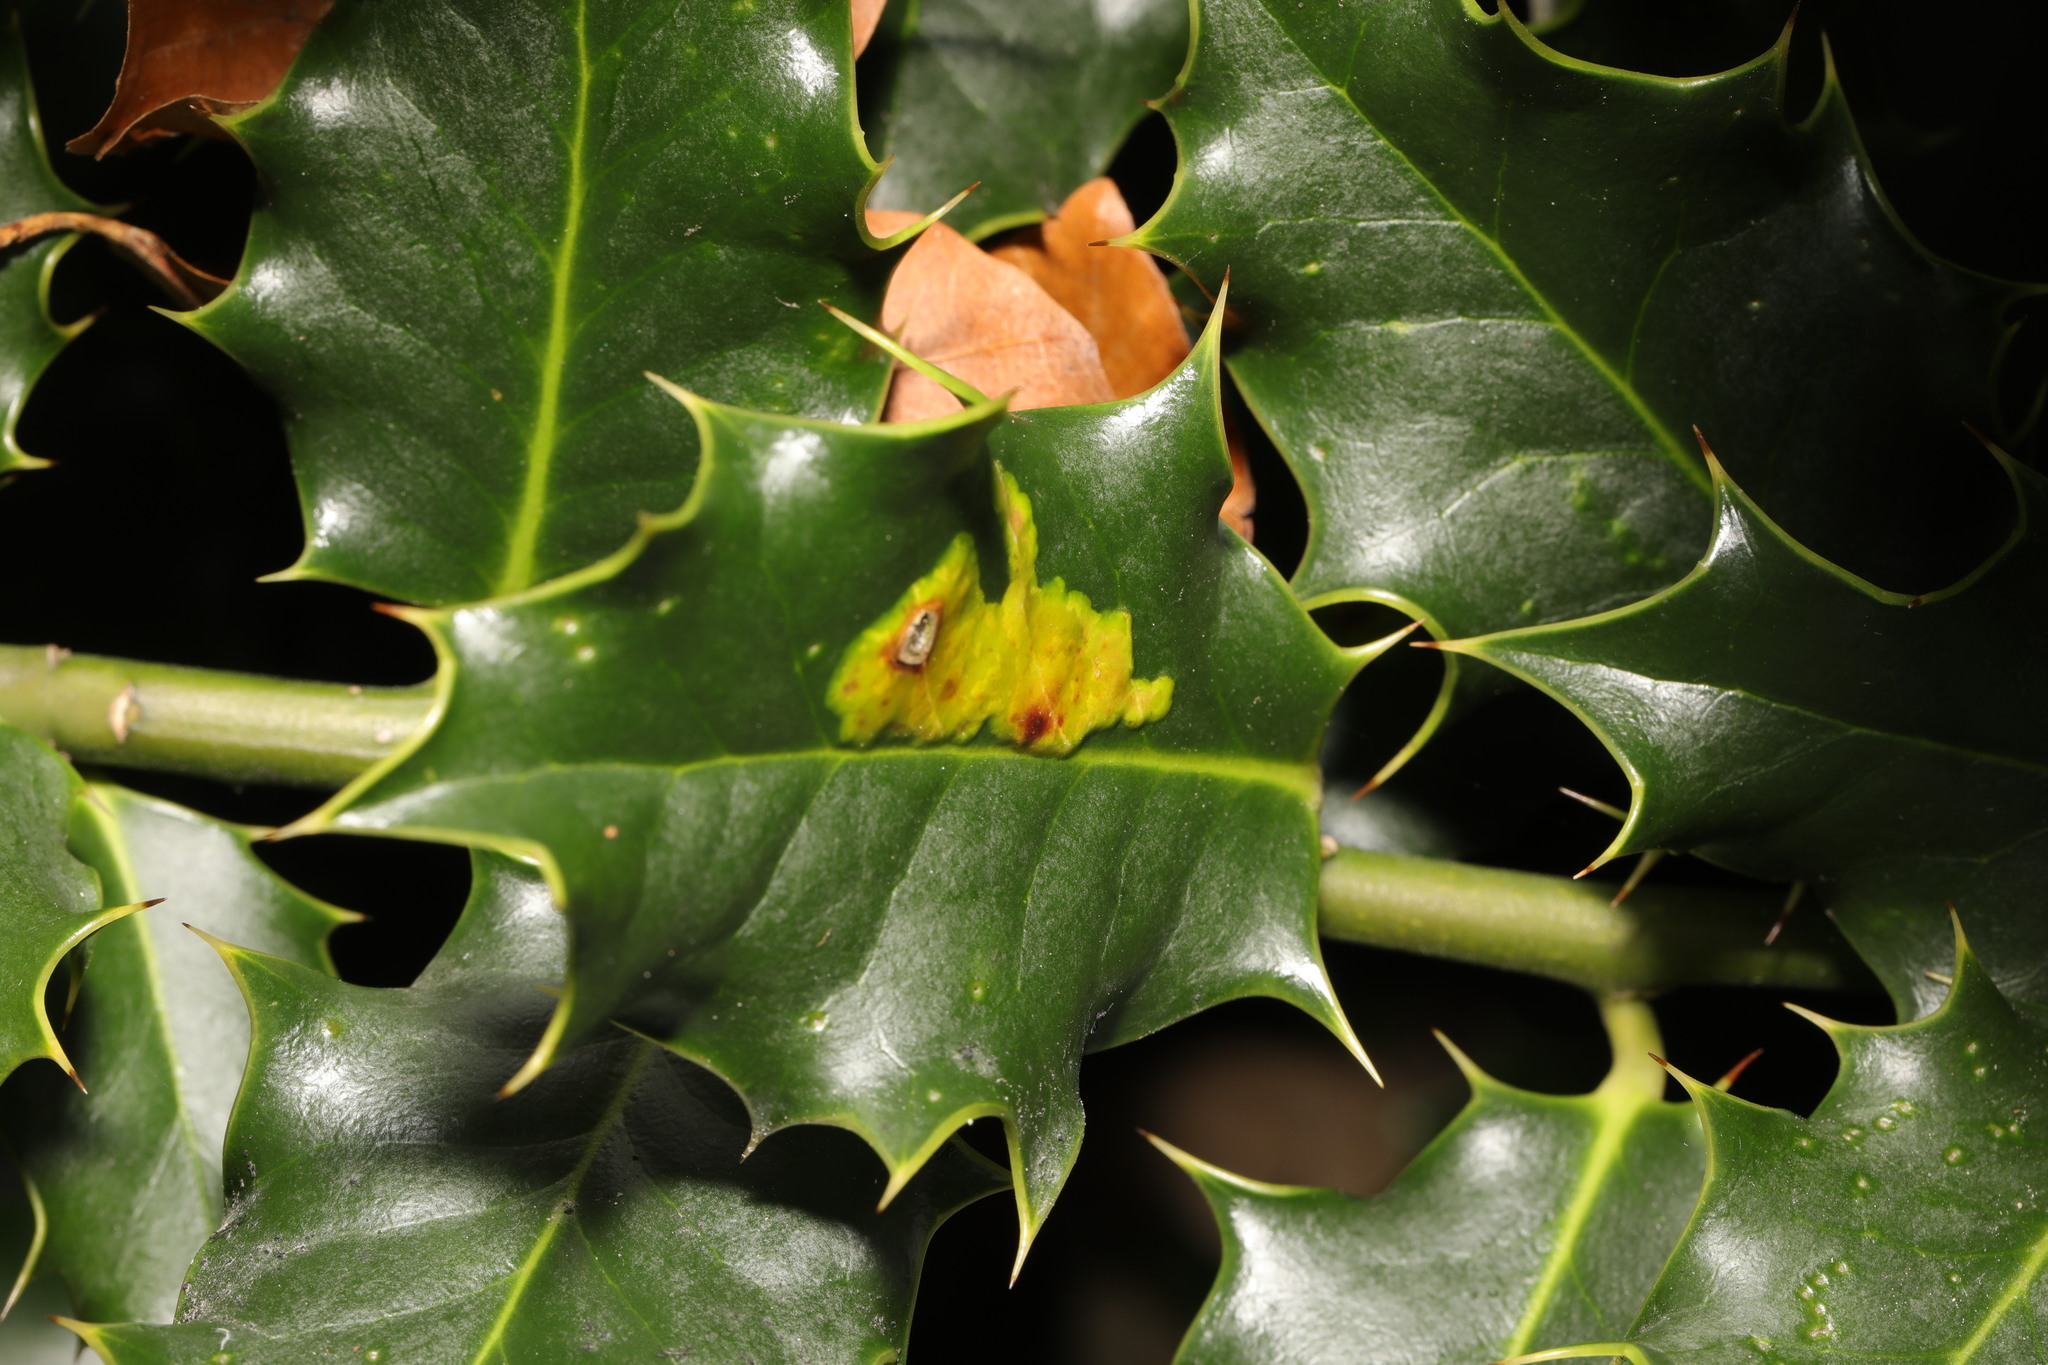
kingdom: Animalia
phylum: Arthropoda
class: Insecta
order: Diptera
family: Agromyzidae
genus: Phytomyza
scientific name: Phytomyza ilicis
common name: Holly leafminer
